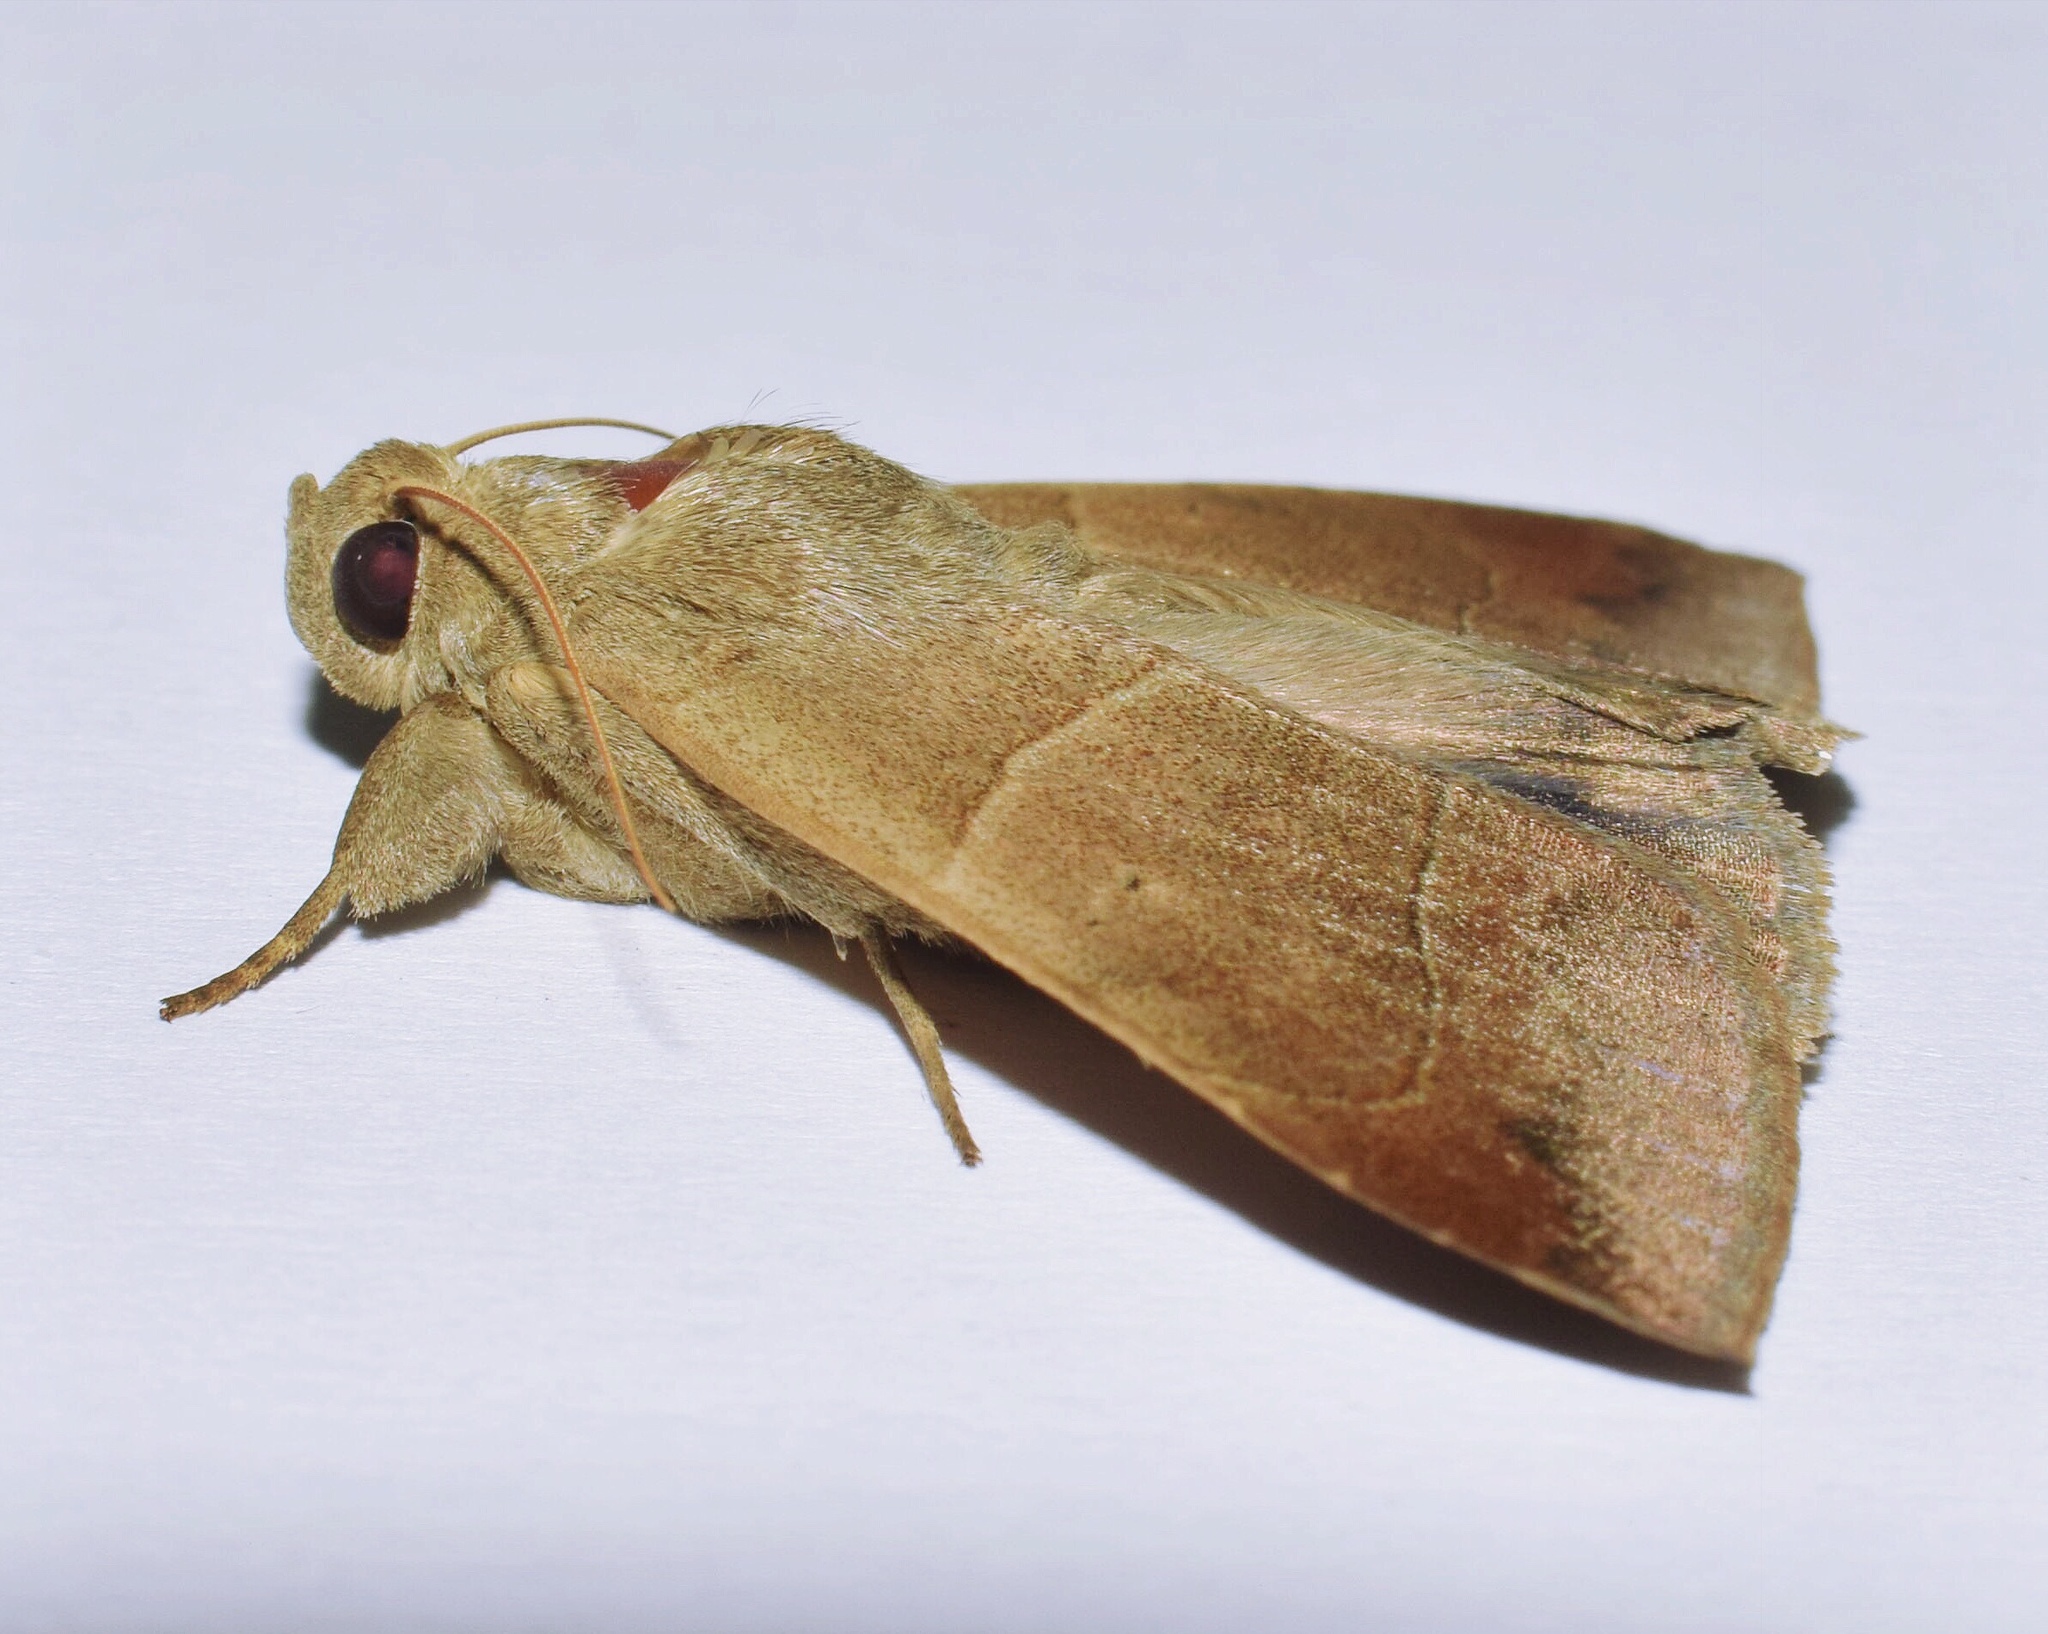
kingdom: Animalia
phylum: Arthropoda
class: Insecta
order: Lepidoptera
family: Erebidae
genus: Achaea
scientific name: Achaea indeterminata
